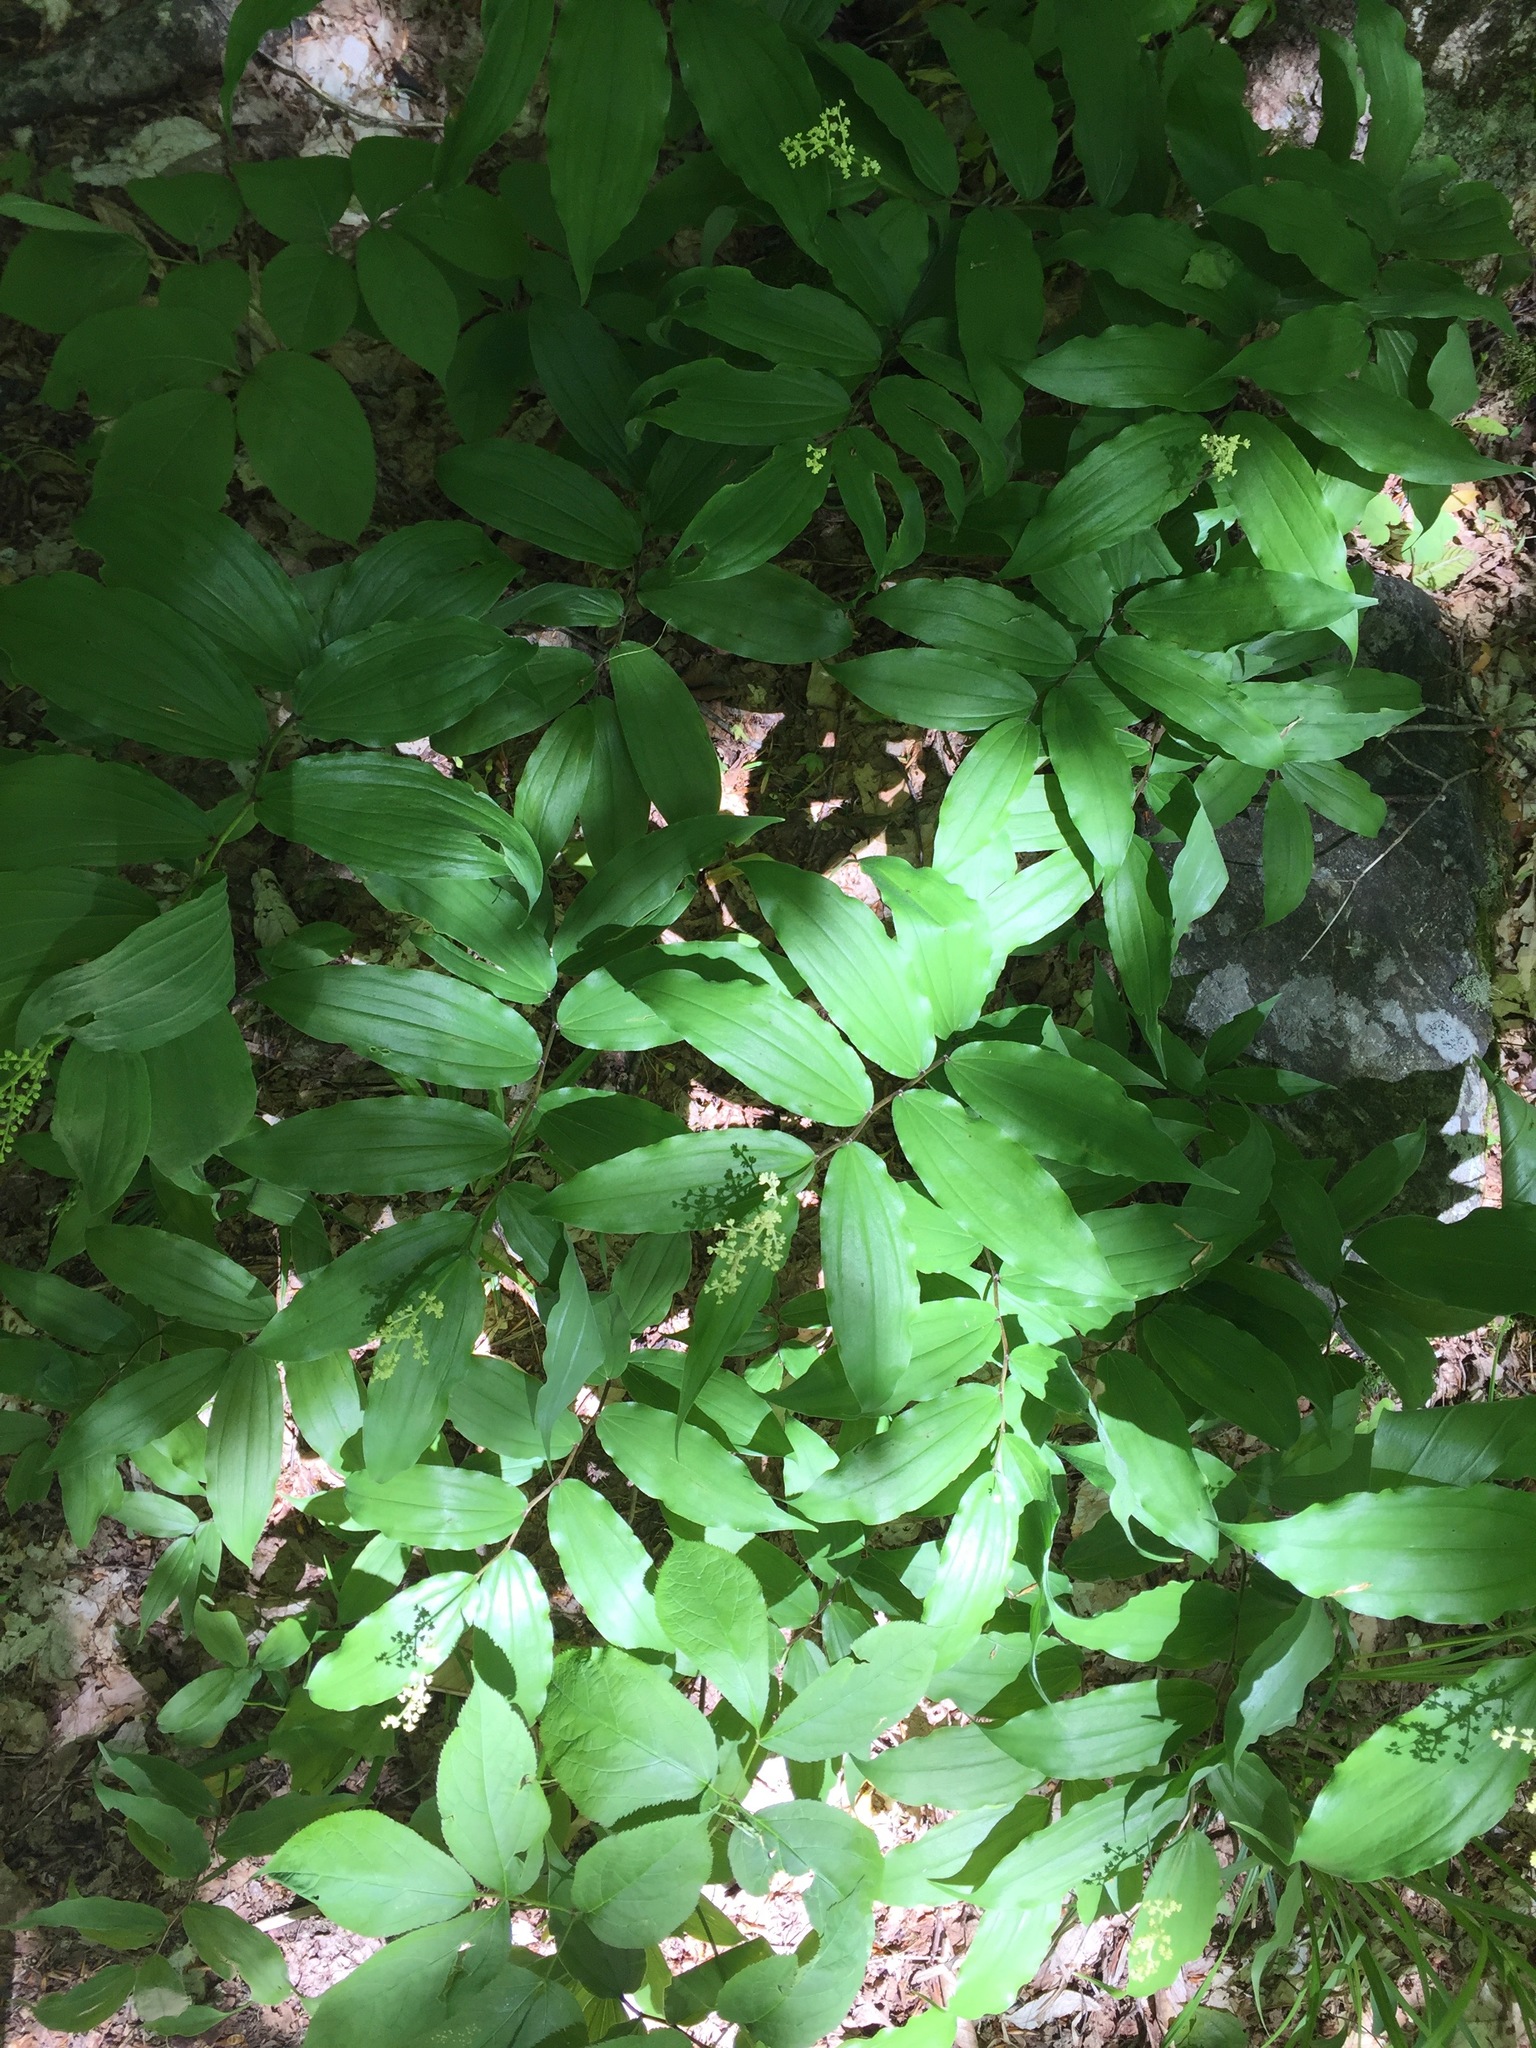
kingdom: Plantae
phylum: Tracheophyta
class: Liliopsida
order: Asparagales
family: Asparagaceae
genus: Maianthemum
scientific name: Maianthemum racemosum
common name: False spikenard
